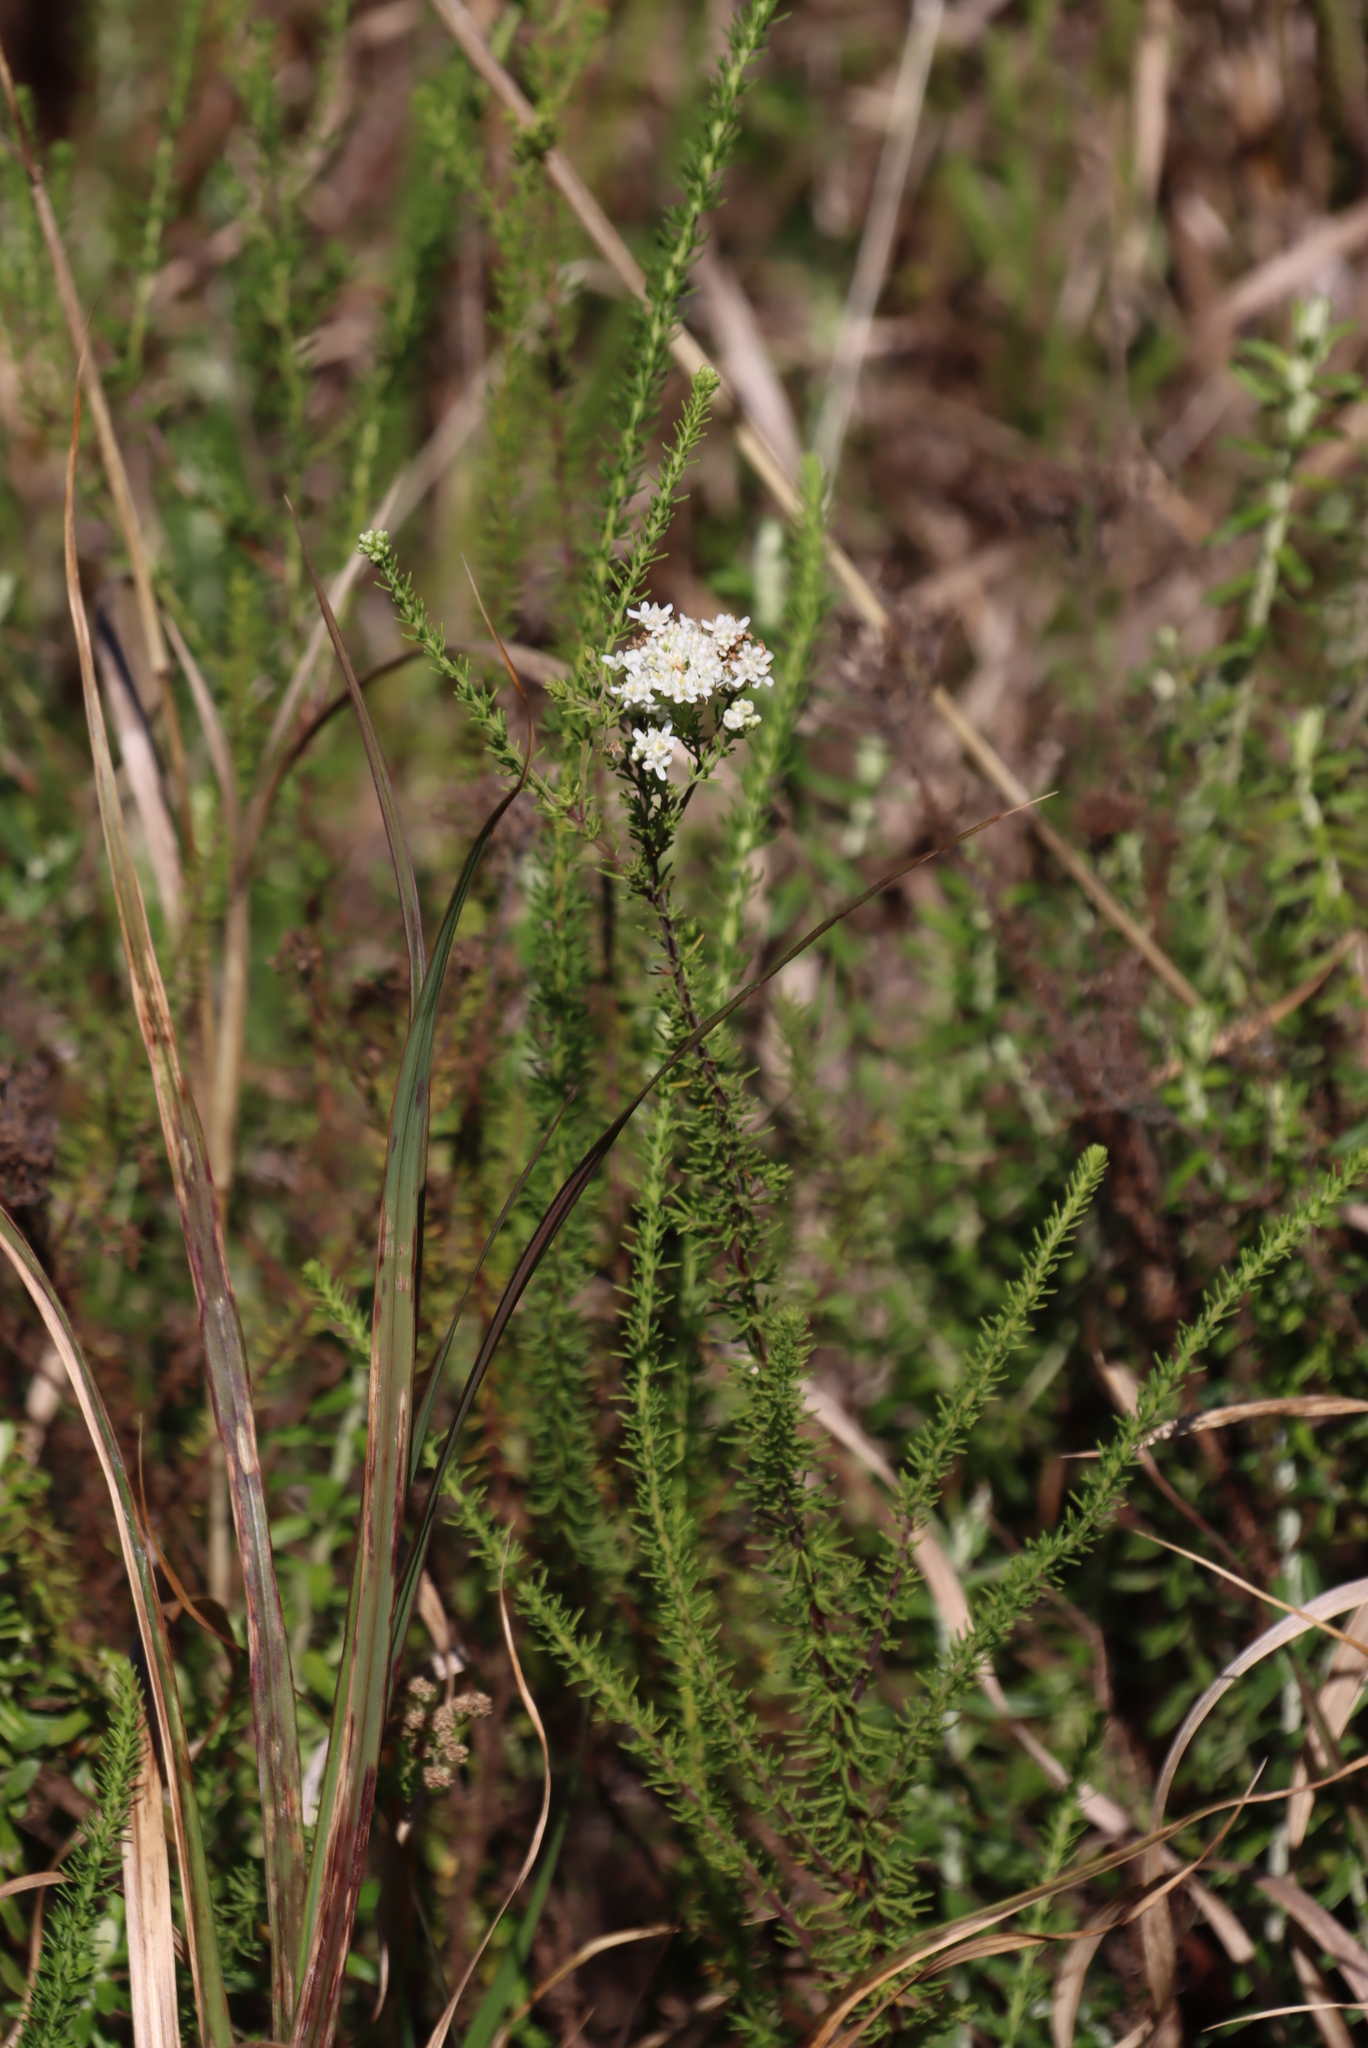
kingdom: Plantae
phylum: Tracheophyta
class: Magnoliopsida
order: Lamiales
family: Scrophulariaceae
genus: Selago
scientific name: Selago corymbosa
